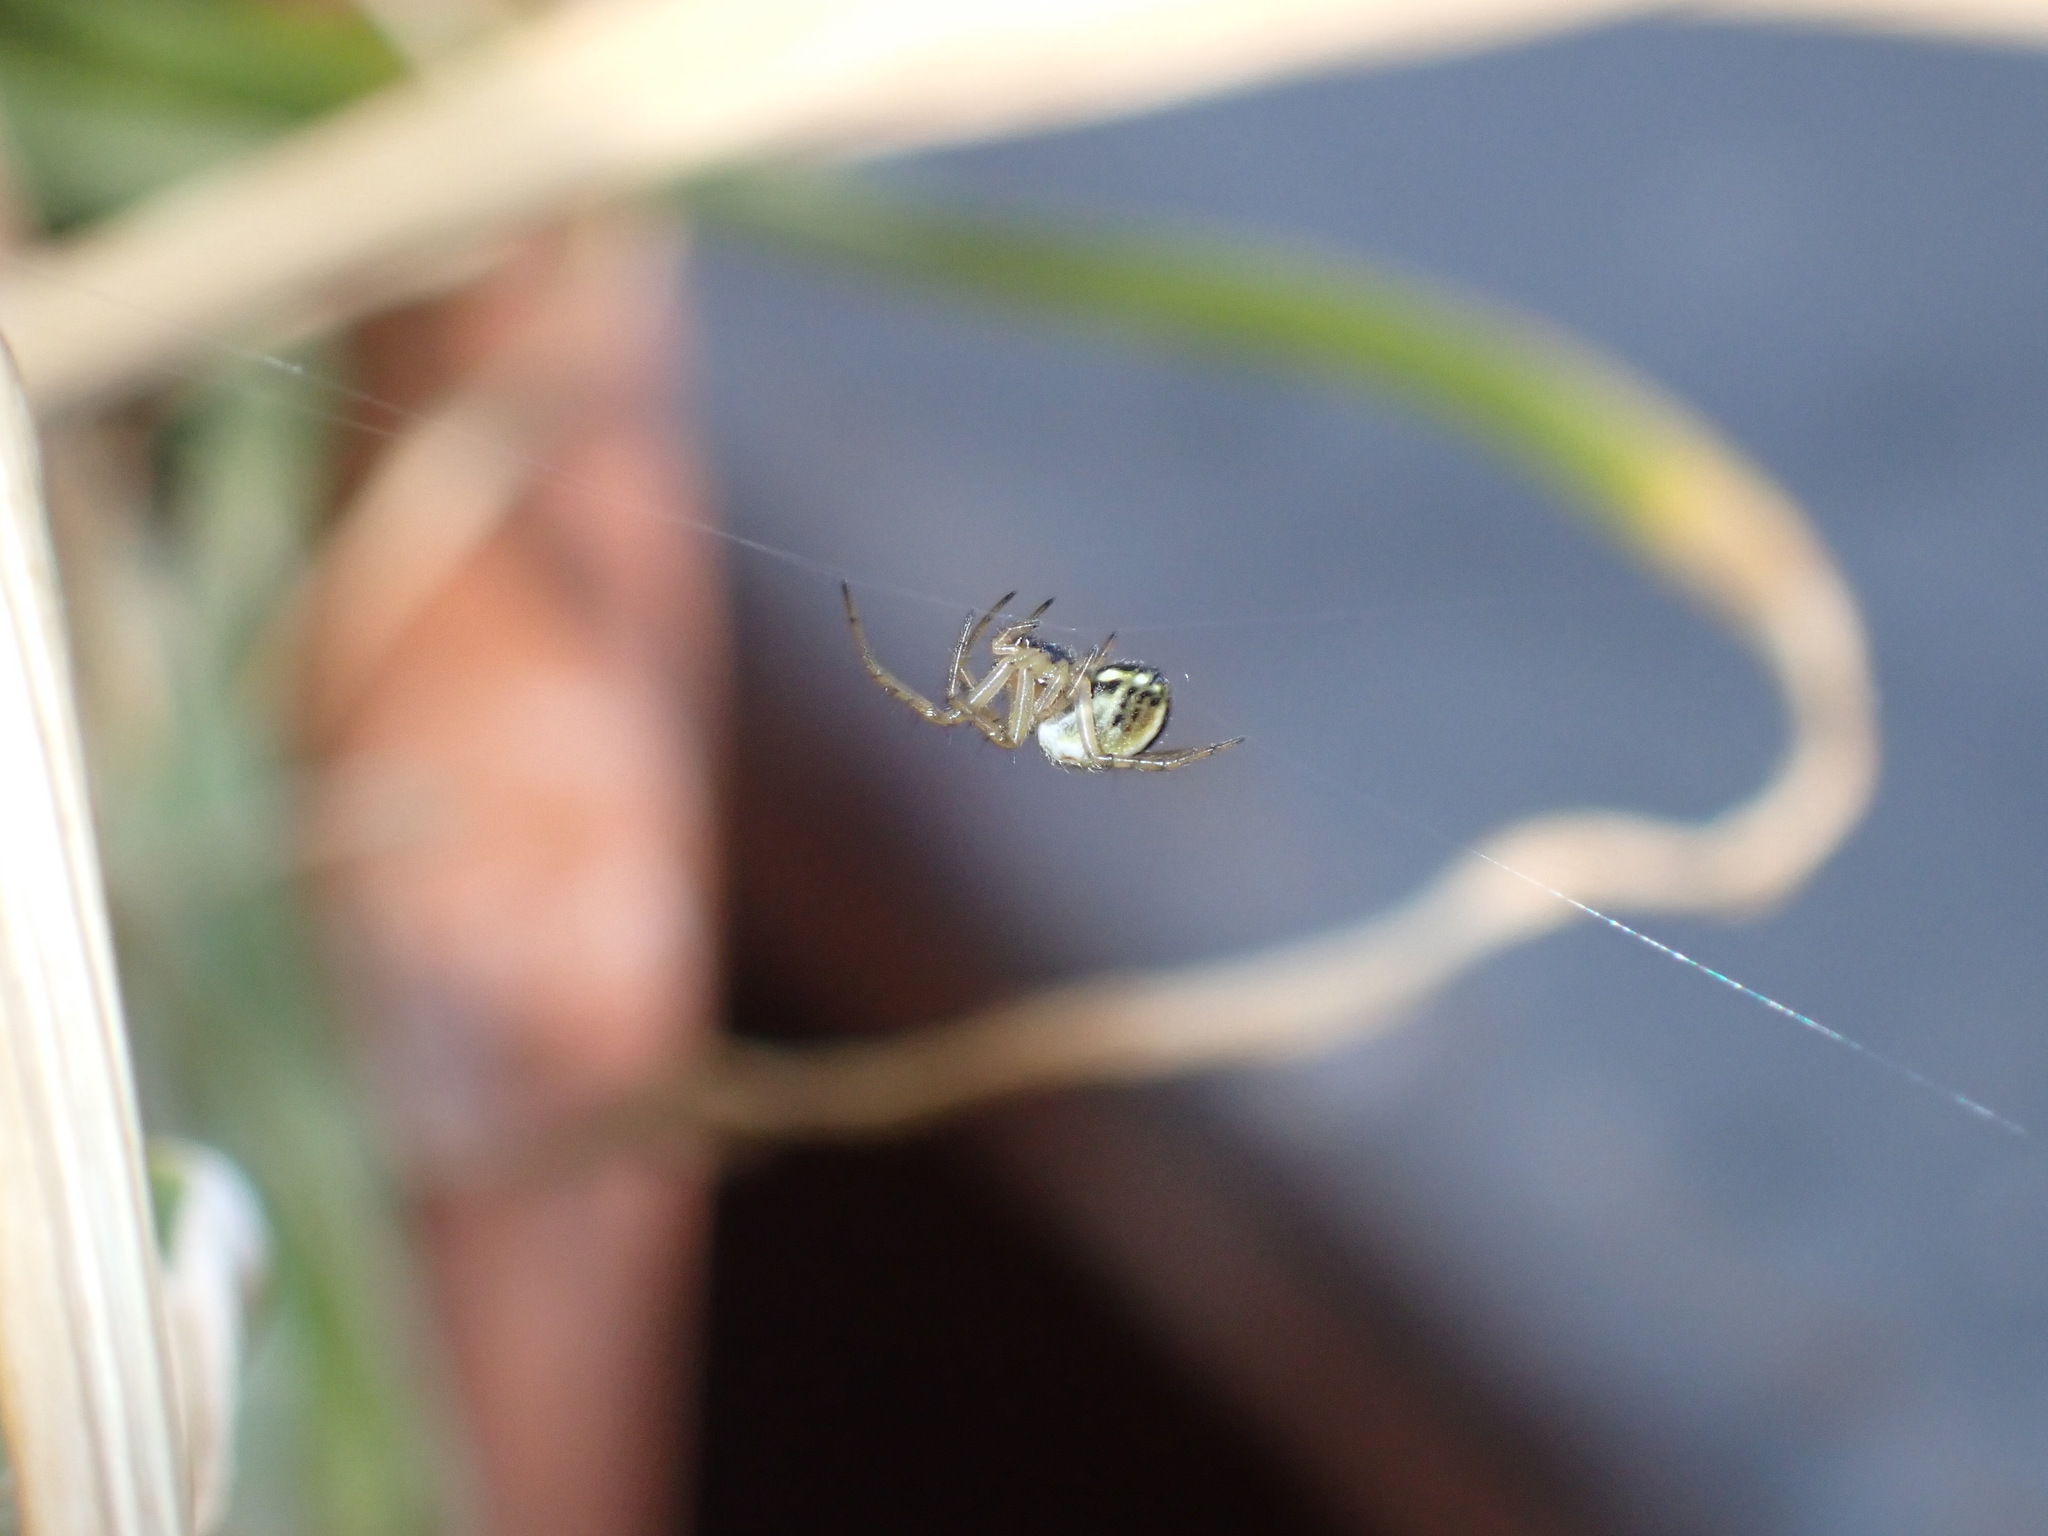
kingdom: Animalia
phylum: Arthropoda
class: Arachnida
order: Araneae
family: Araneidae
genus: Mangora
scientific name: Mangora acalypha
